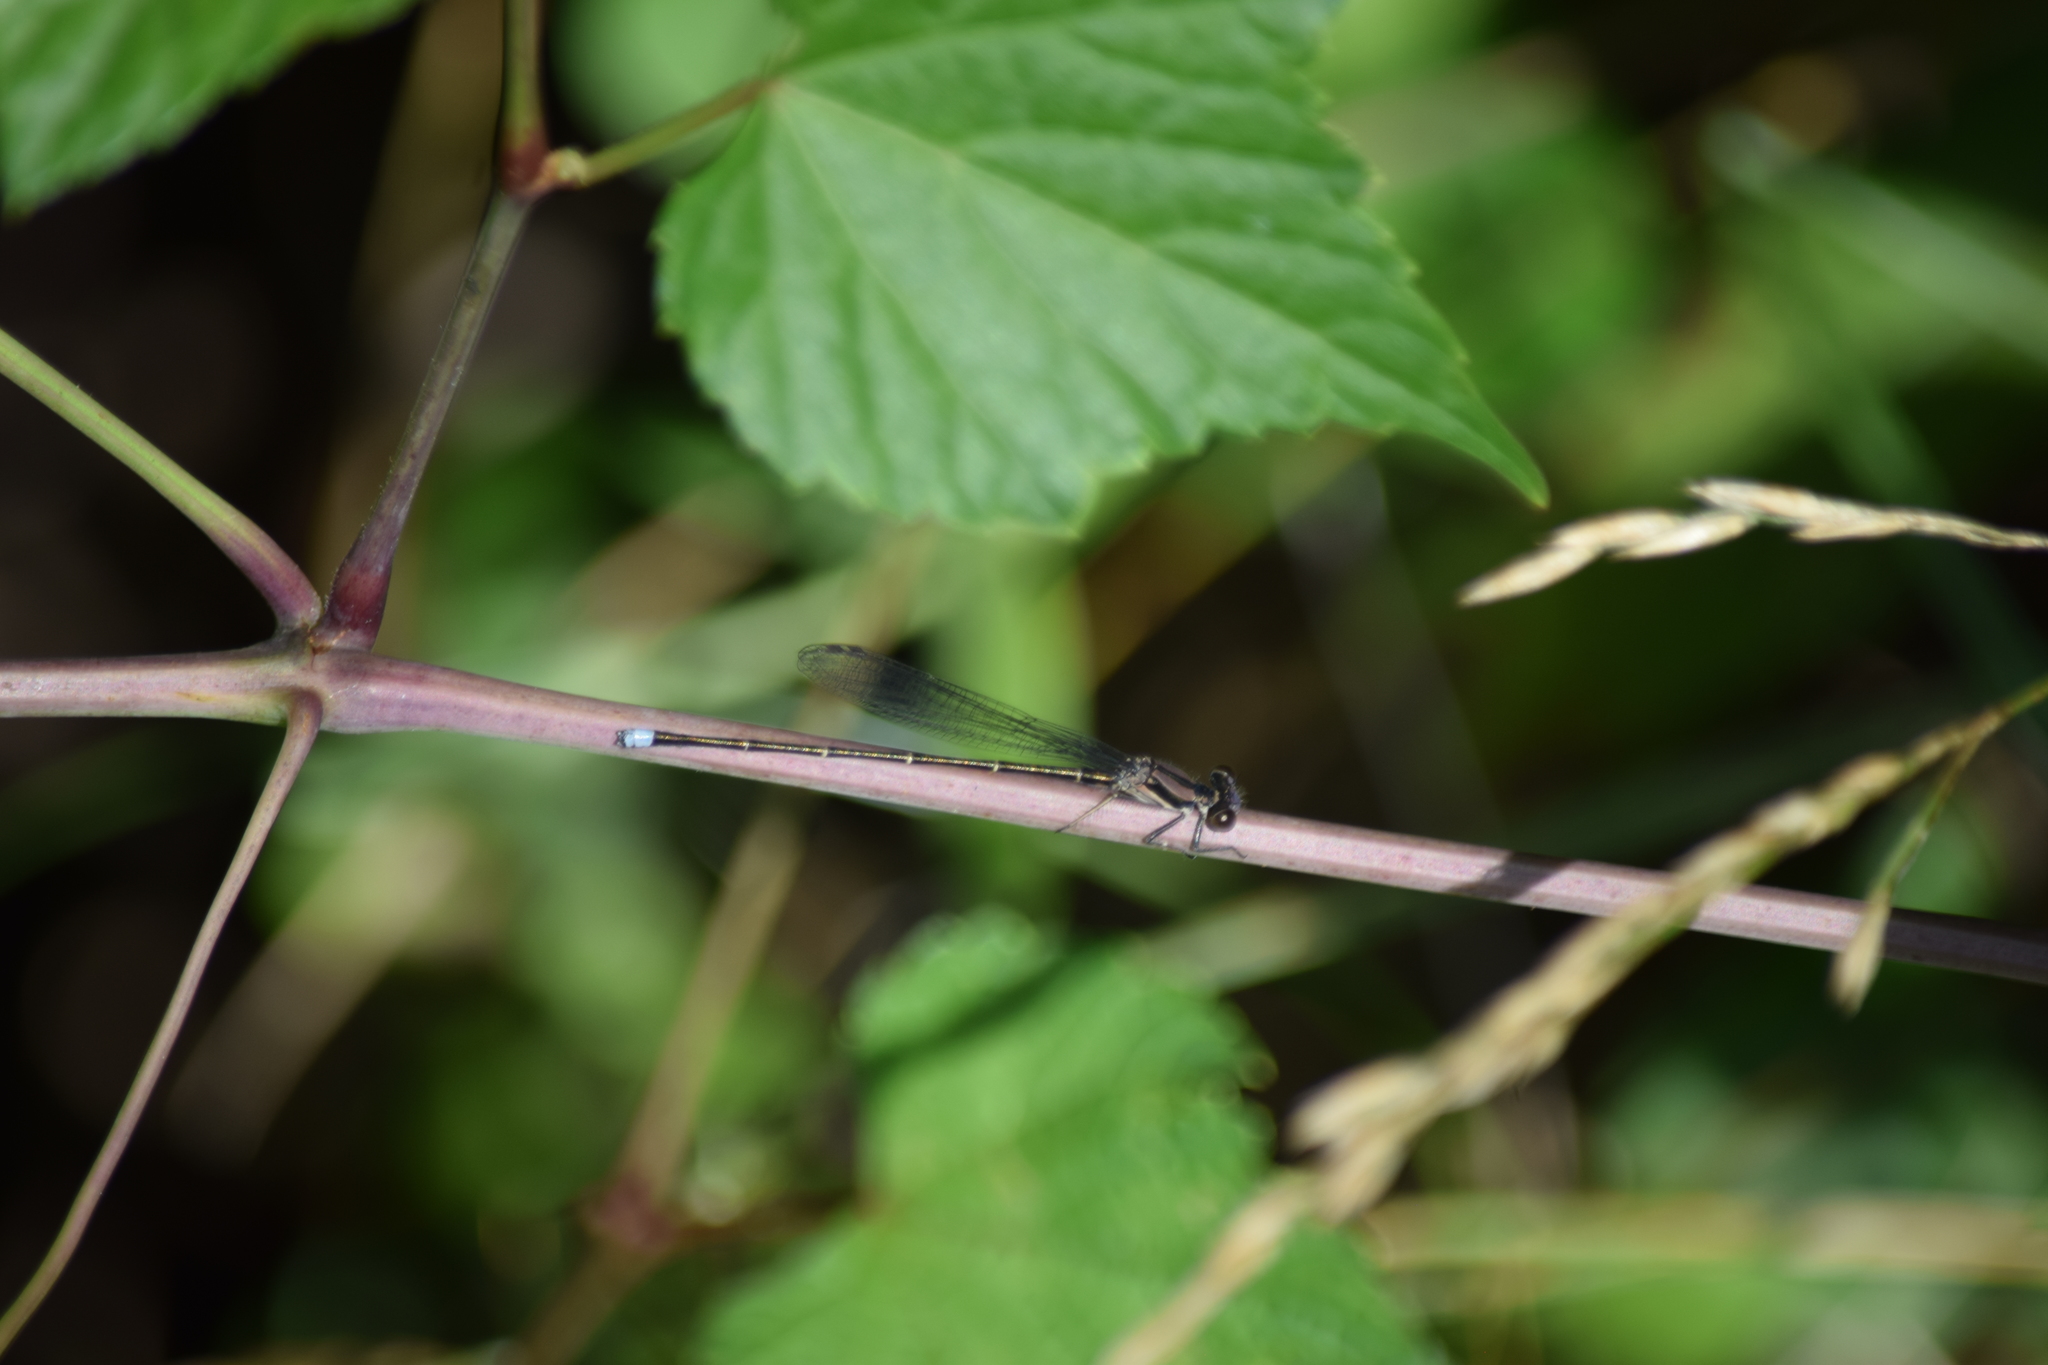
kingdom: Animalia
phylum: Arthropoda
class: Insecta
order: Odonata
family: Coenagrionidae
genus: Argia
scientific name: Argia tibialis
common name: Blue-tipped dancer
